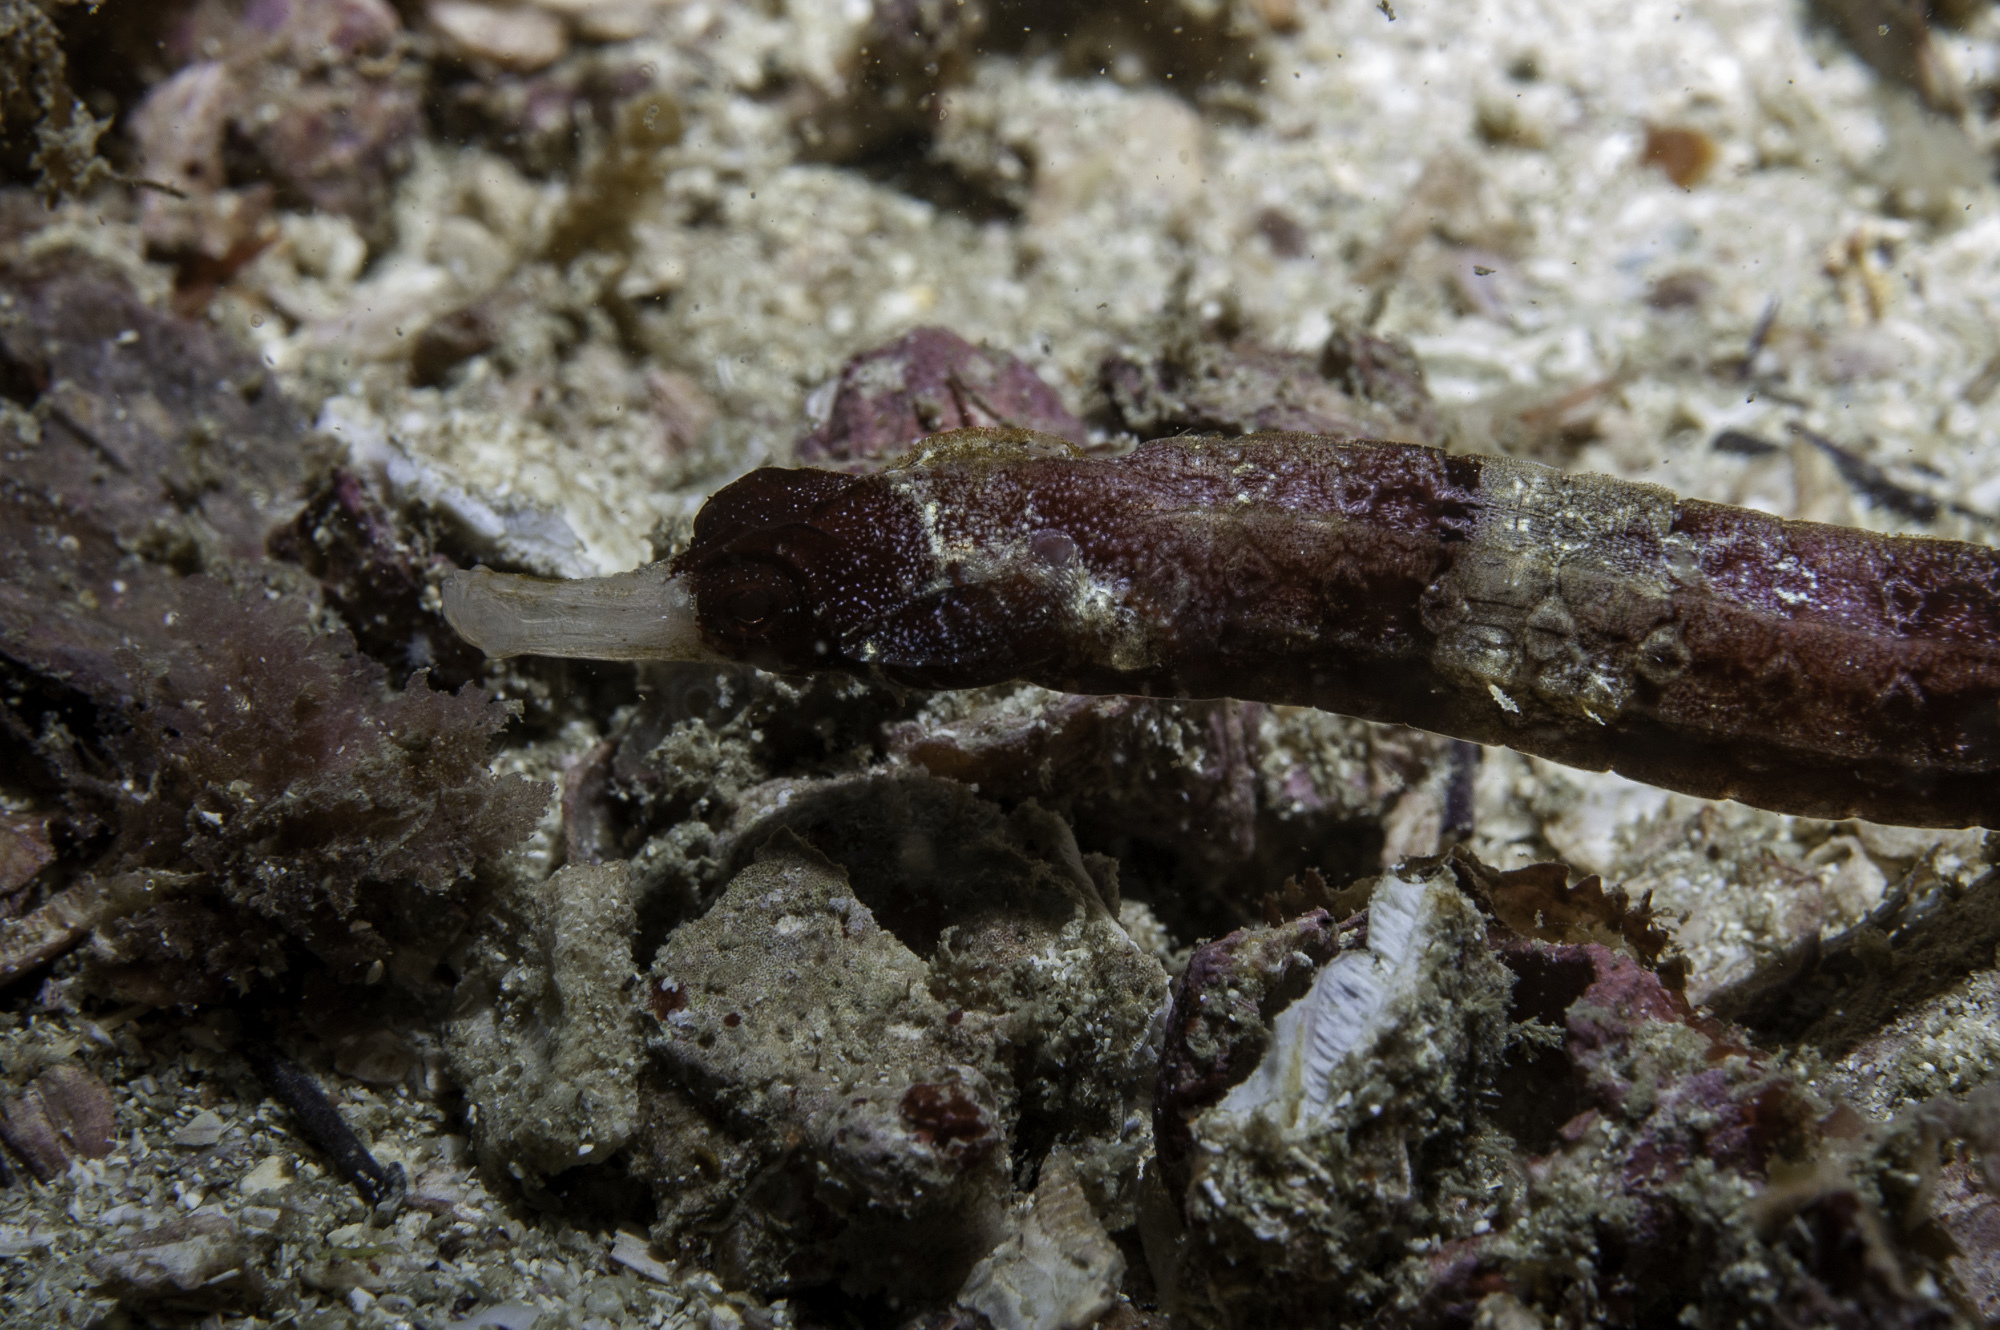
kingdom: Animalia
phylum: Chordata
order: Syngnathiformes
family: Syngnathidae
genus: Cosmocampus
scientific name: Cosmocampus albirostris
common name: White-nose pipefish
